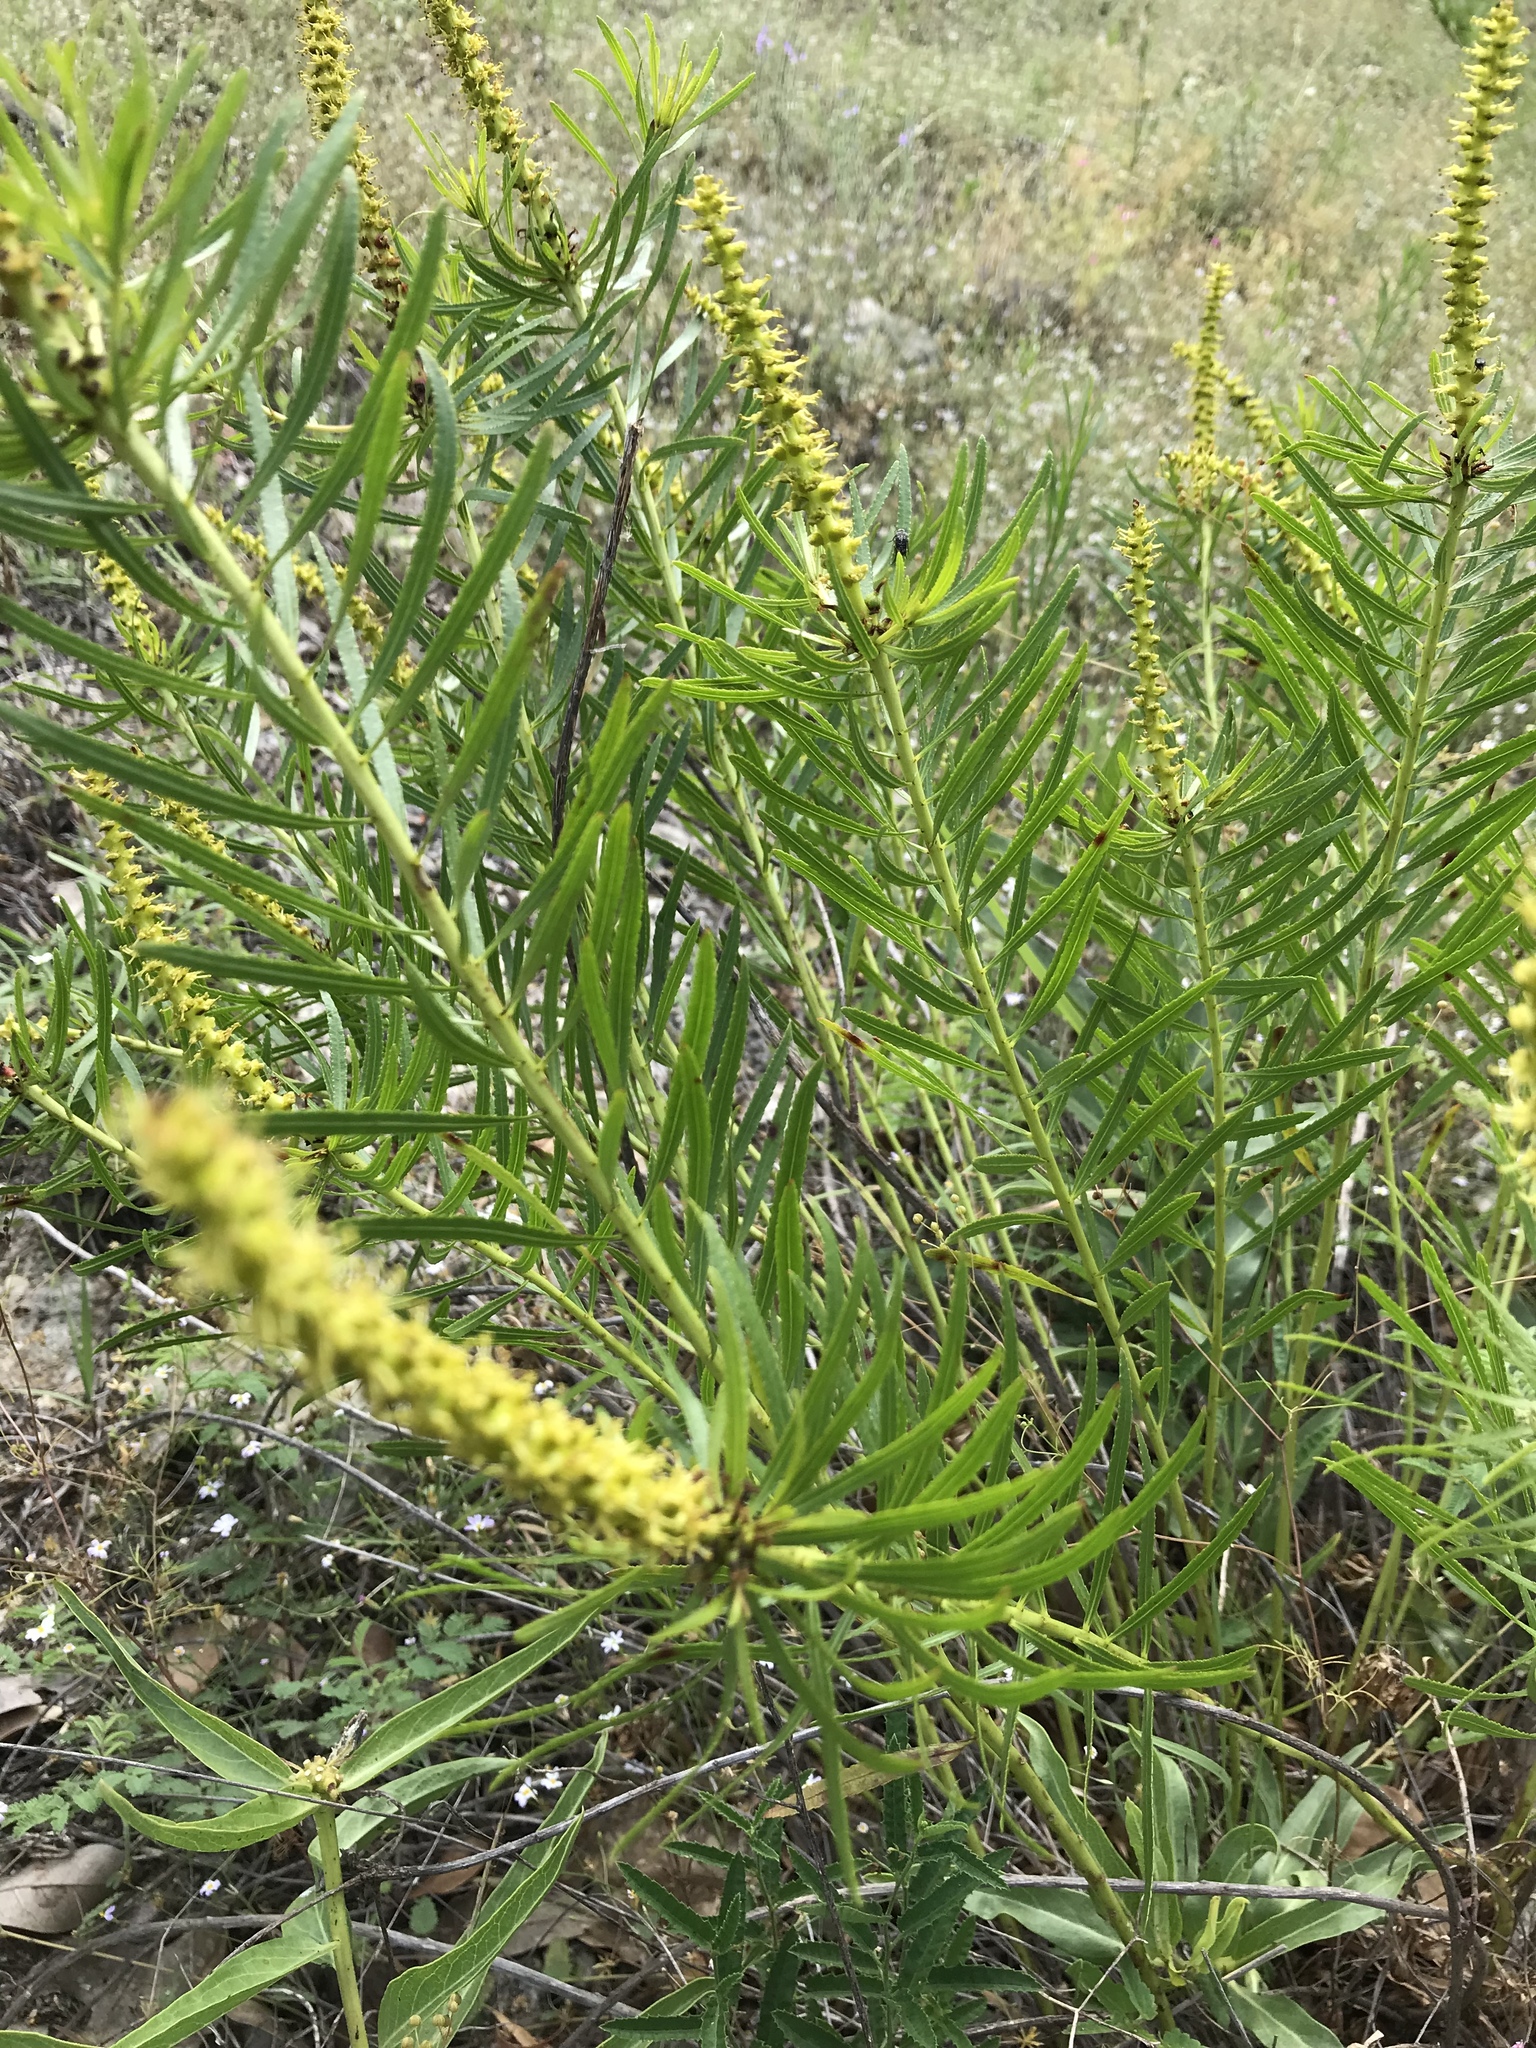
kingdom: Plantae
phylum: Tracheophyta
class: Magnoliopsida
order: Malpighiales
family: Euphorbiaceae
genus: Stillingia
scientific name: Stillingia texana
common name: Texas stillingia
